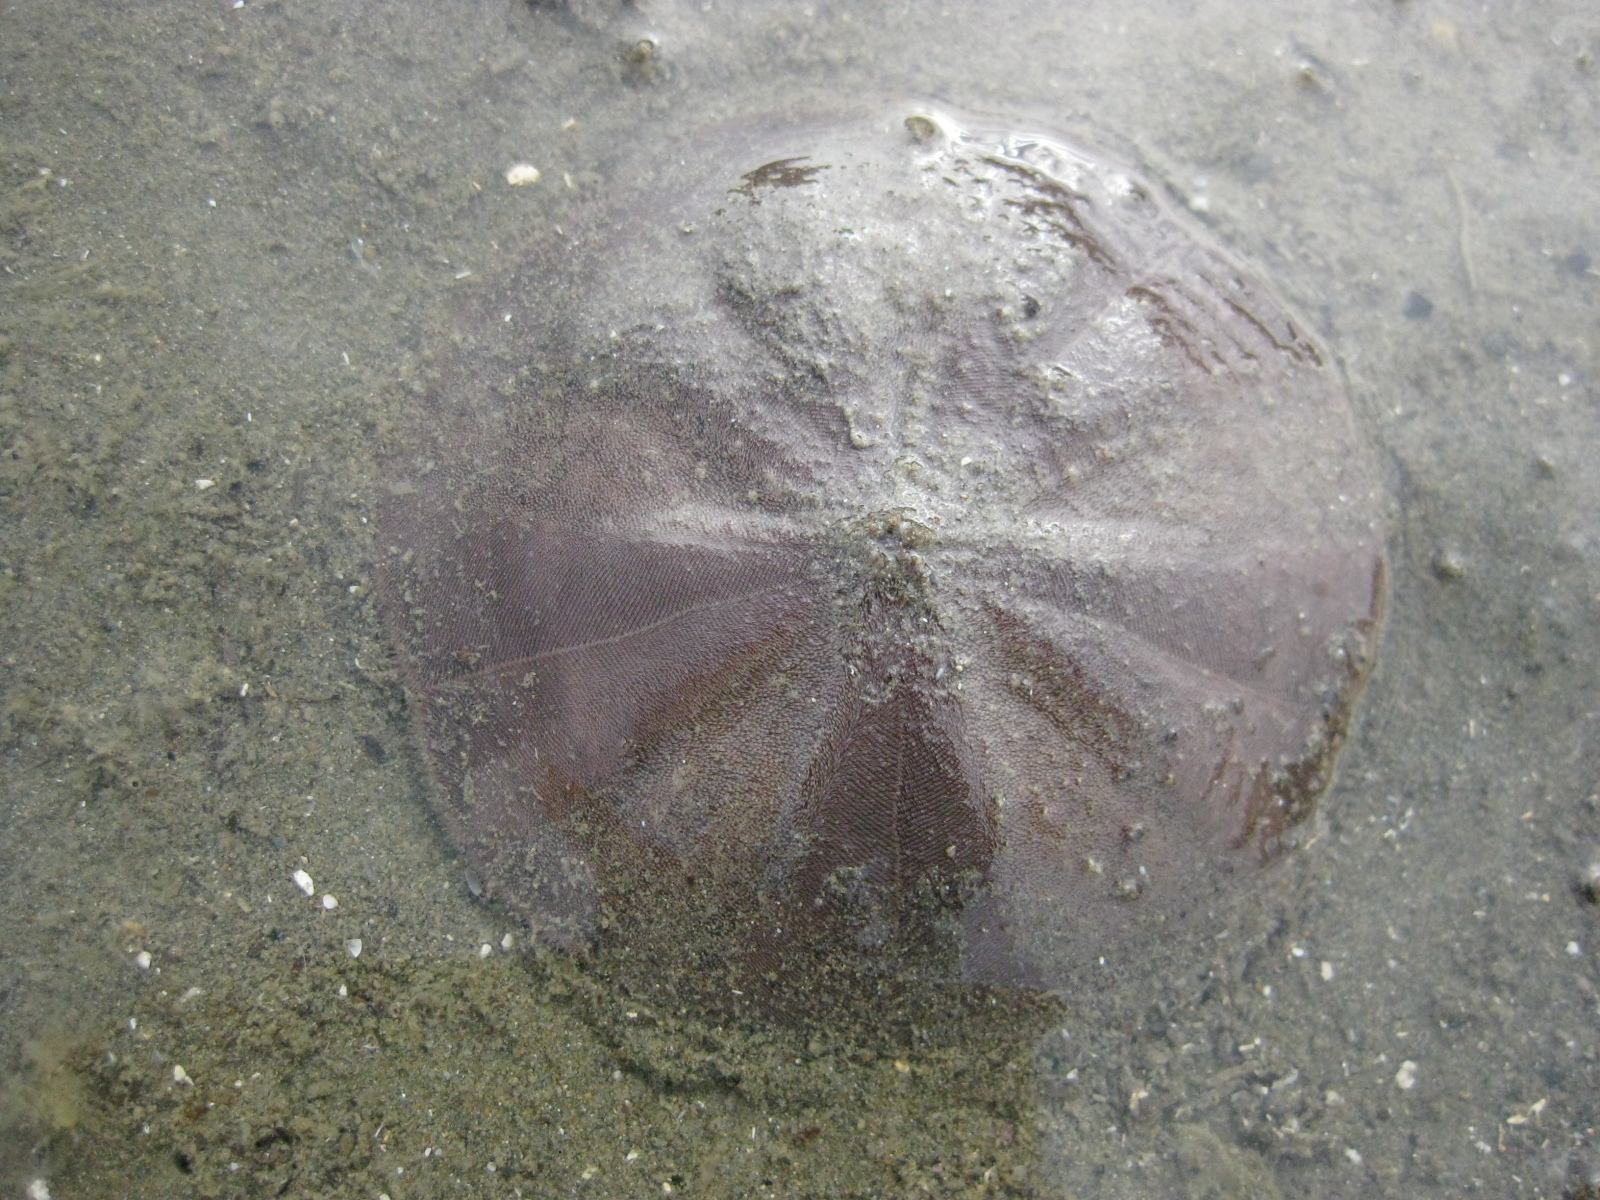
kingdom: Animalia
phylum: Echinodermata
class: Echinoidea
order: Clypeasteroida
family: Clypeasteridae
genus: Fellaster
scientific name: Fellaster zelandiae
